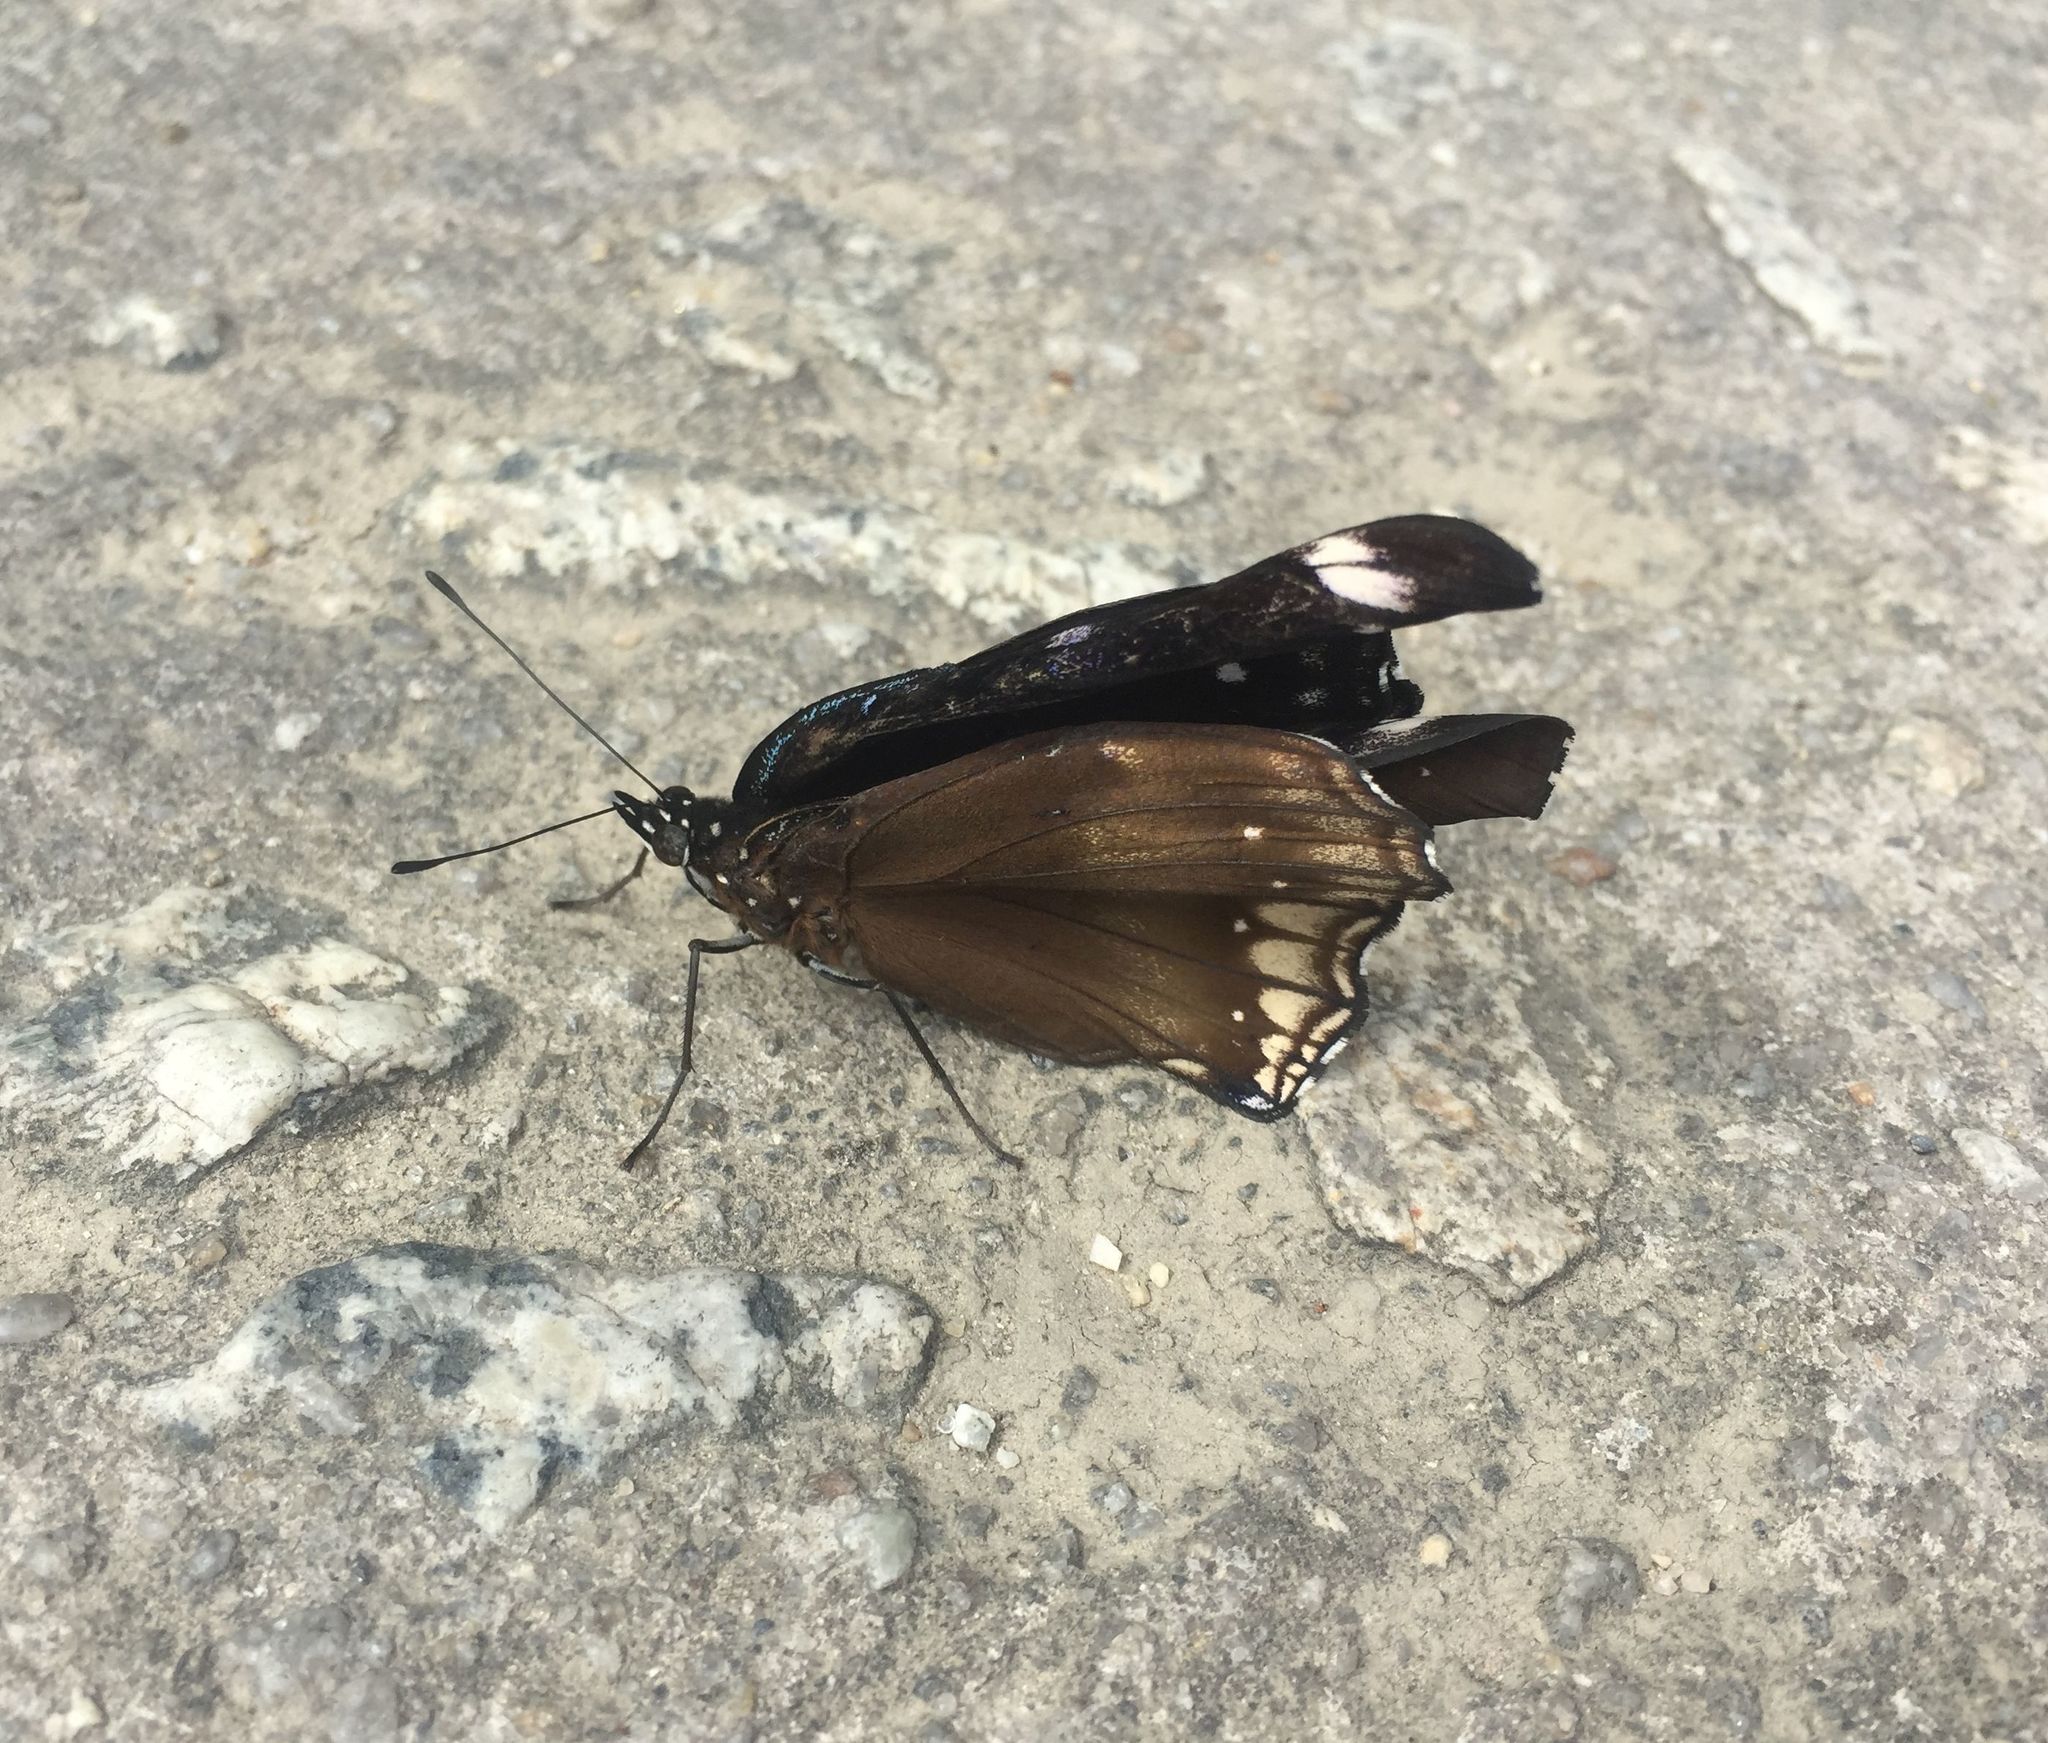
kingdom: Animalia
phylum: Arthropoda
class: Insecta
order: Lepidoptera
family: Nymphalidae
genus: Hypolimnas
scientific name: Hypolimnas bolina
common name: Great eggfly
